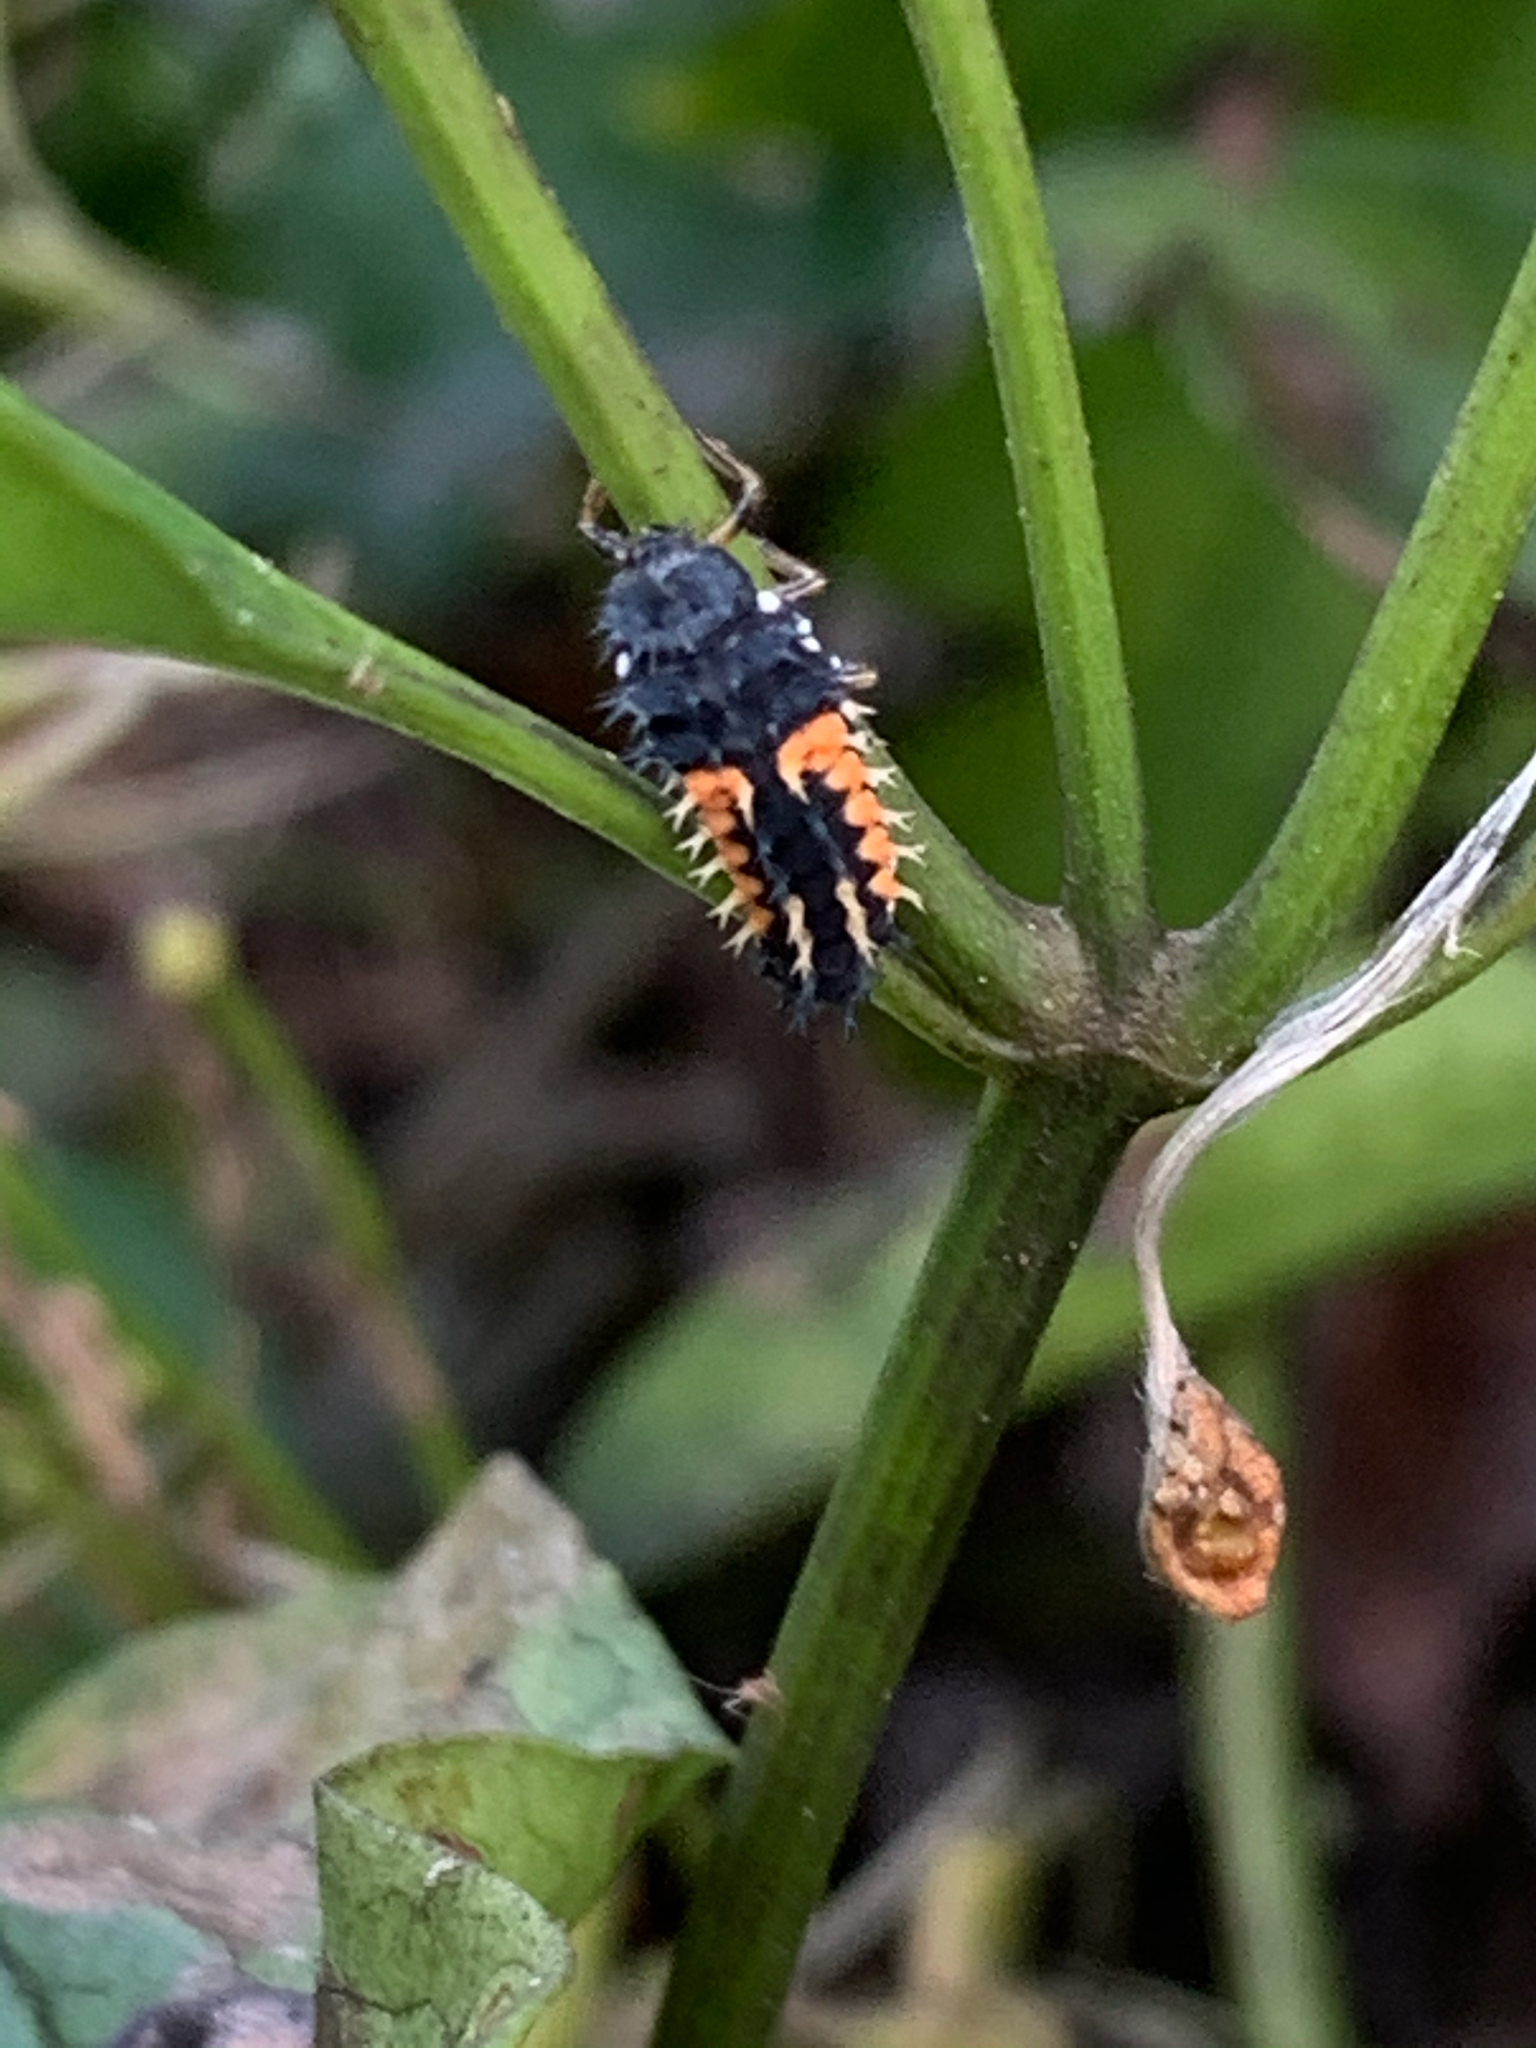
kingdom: Animalia
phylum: Arthropoda
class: Insecta
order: Coleoptera
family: Coccinellidae
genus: Harmonia
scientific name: Harmonia axyridis
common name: Harlequin ladybird
